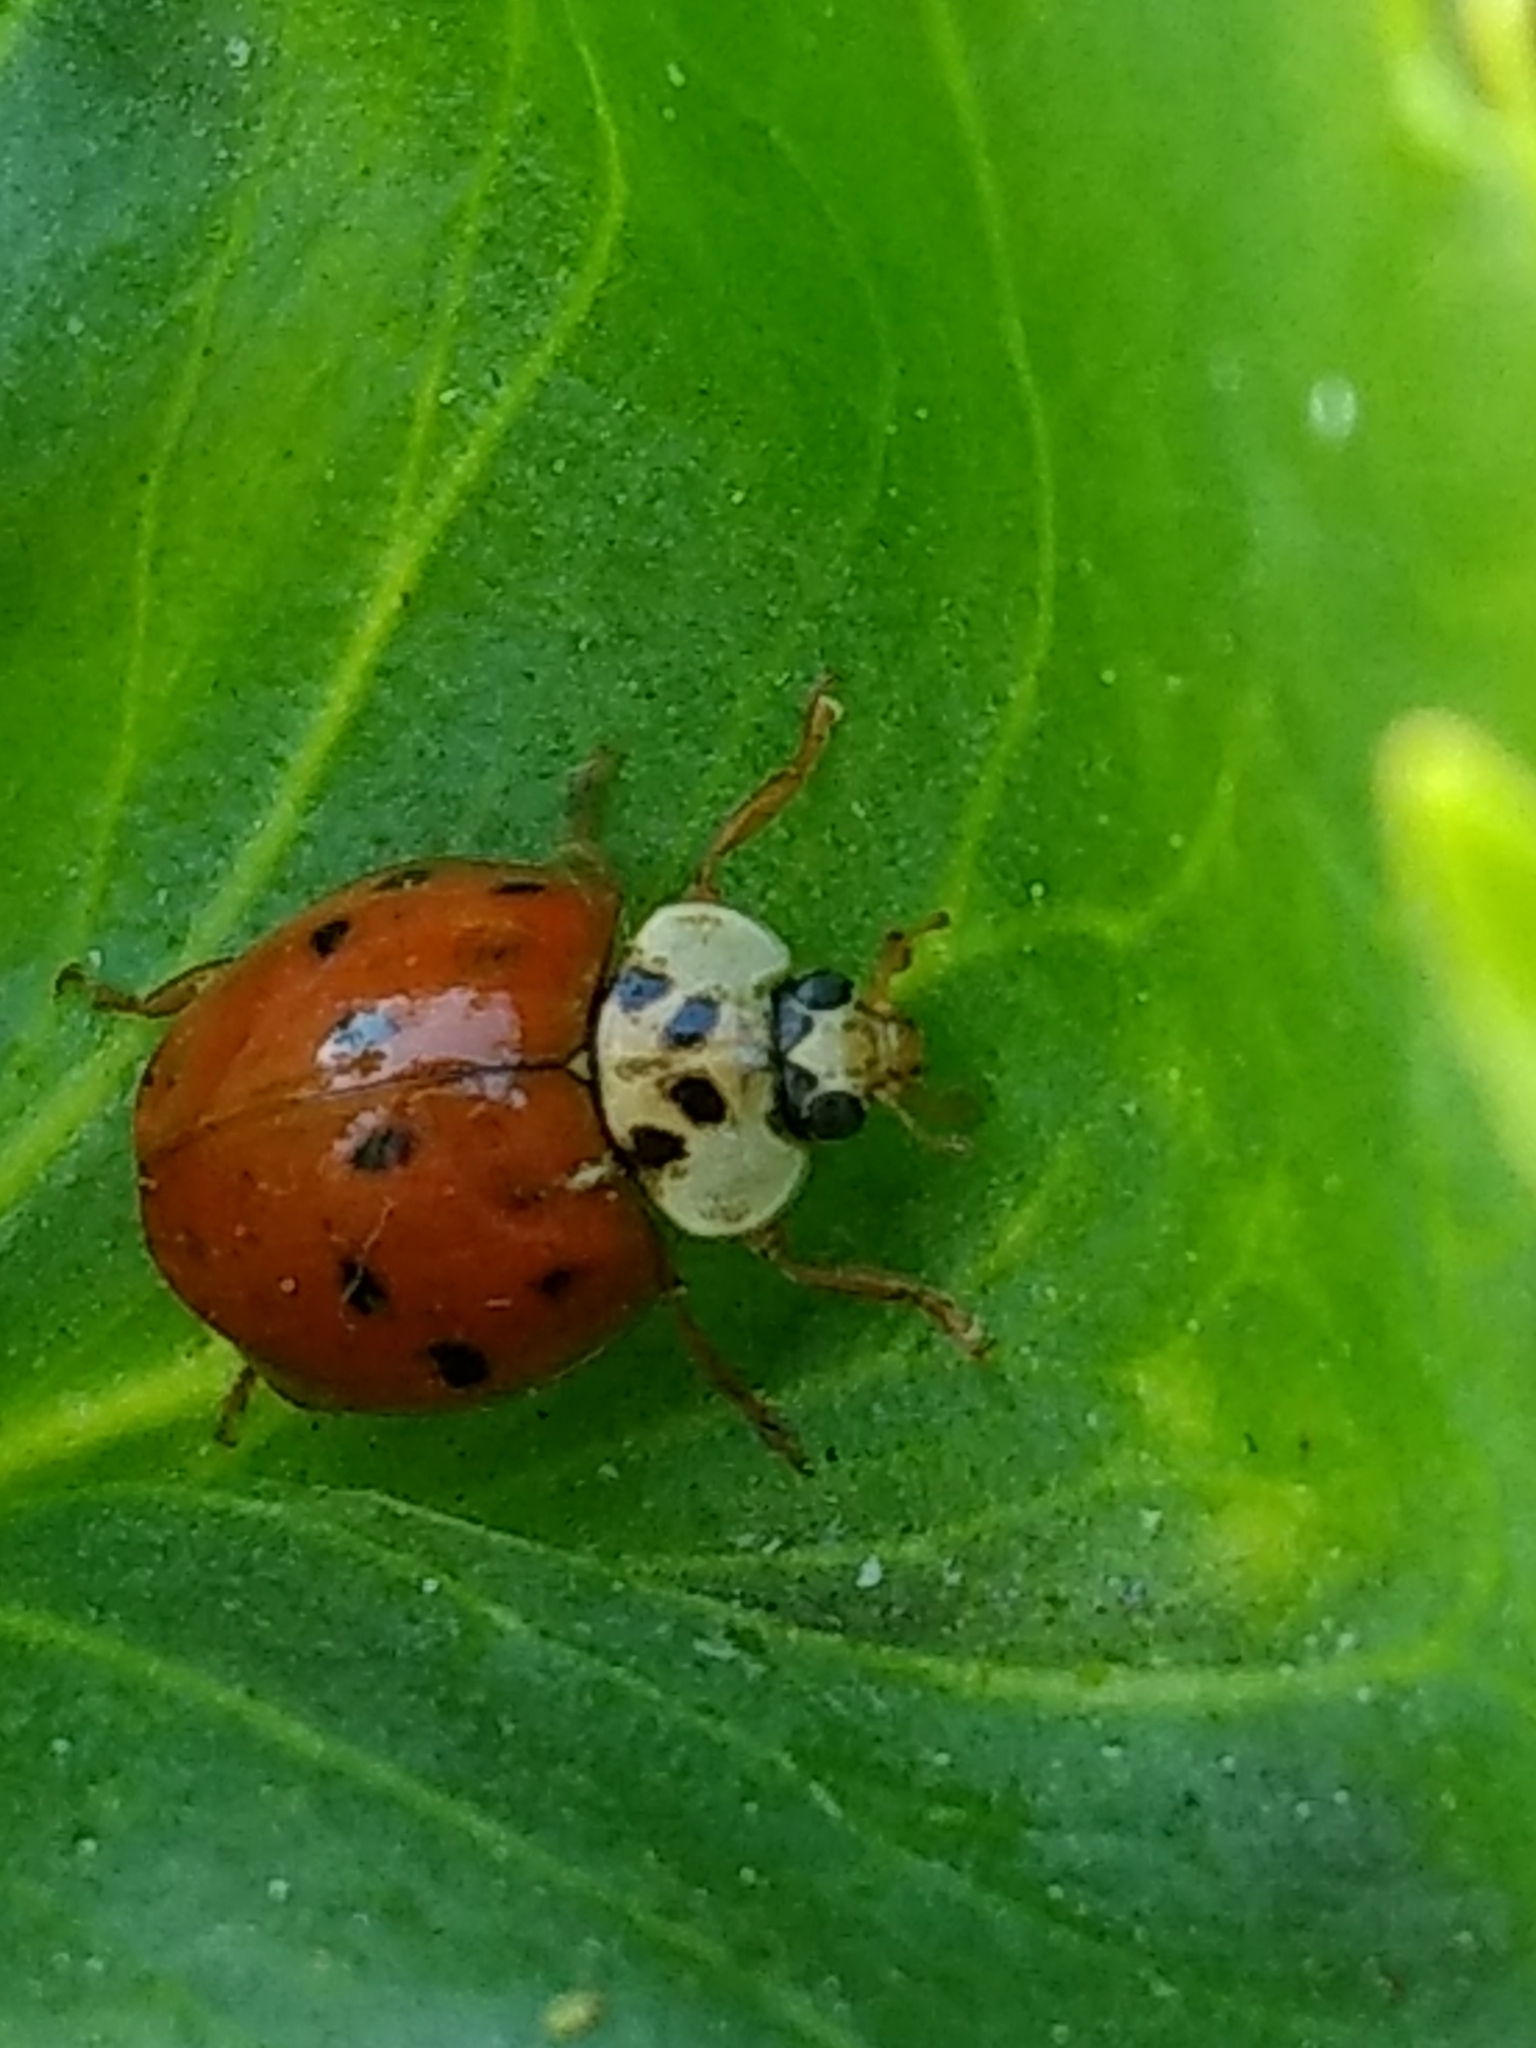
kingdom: Animalia
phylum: Arthropoda
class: Insecta
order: Coleoptera
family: Coccinellidae
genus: Harmonia
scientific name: Harmonia axyridis
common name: Harlequin ladybird
